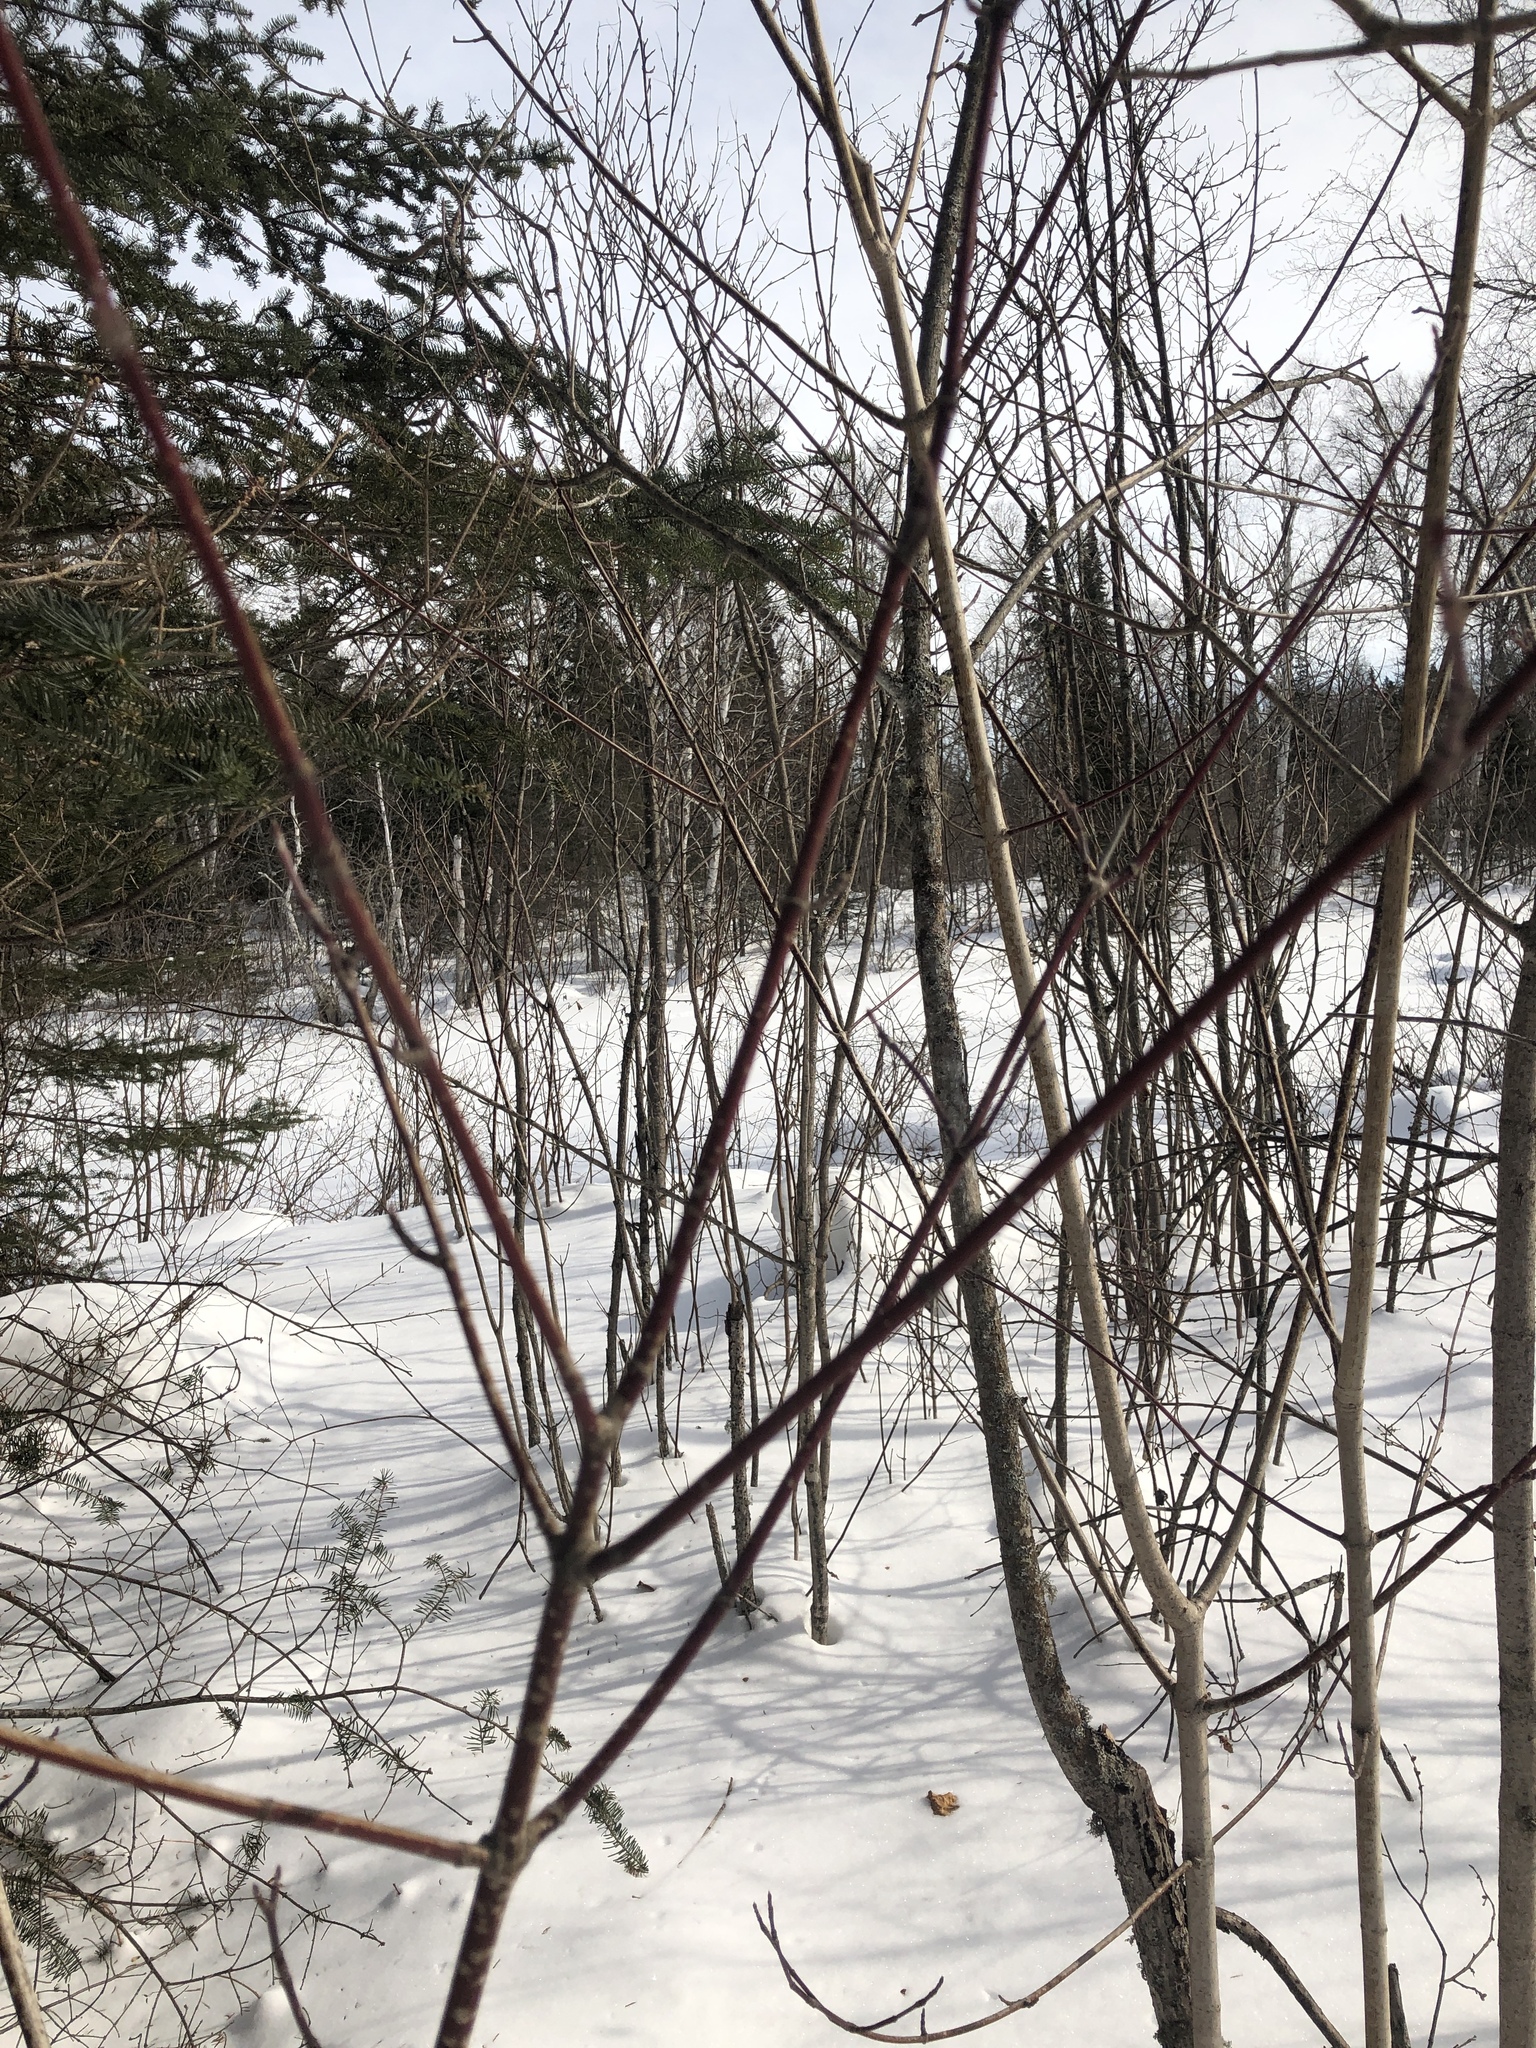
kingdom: Plantae
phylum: Tracheophyta
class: Magnoliopsida
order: Sapindales
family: Sapindaceae
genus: Acer
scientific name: Acer spicatum
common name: Mountain maple
